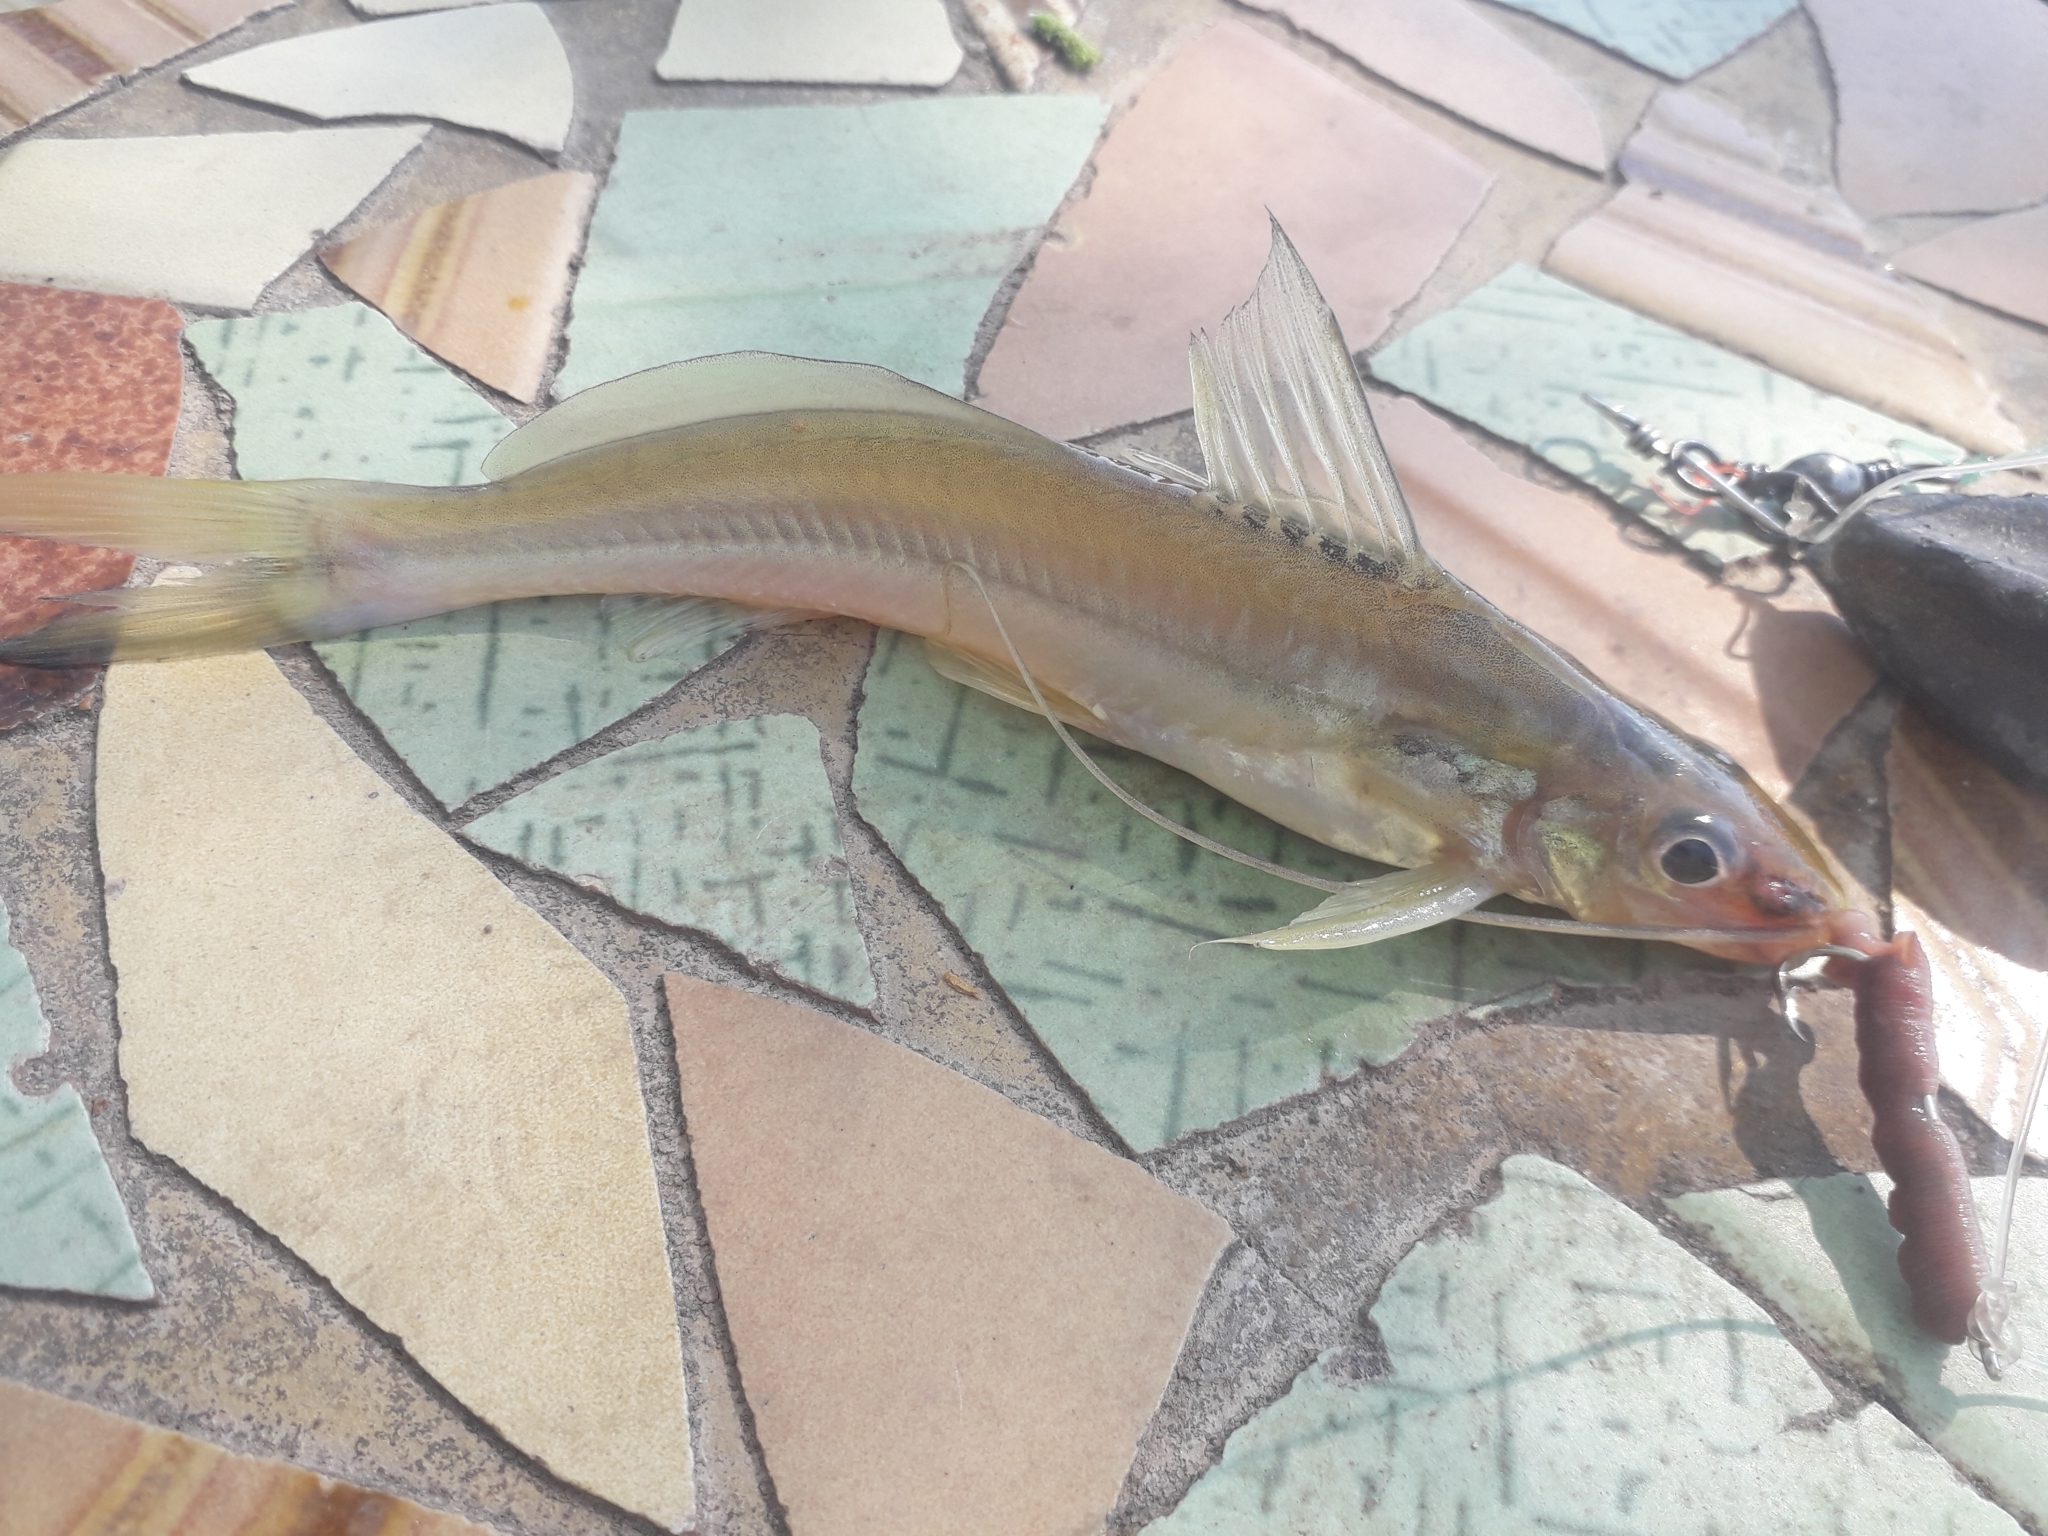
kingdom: Animalia
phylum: Chordata
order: Siluriformes
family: Heptapteridae
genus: Pimelodella
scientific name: Pimelodella gracilis
